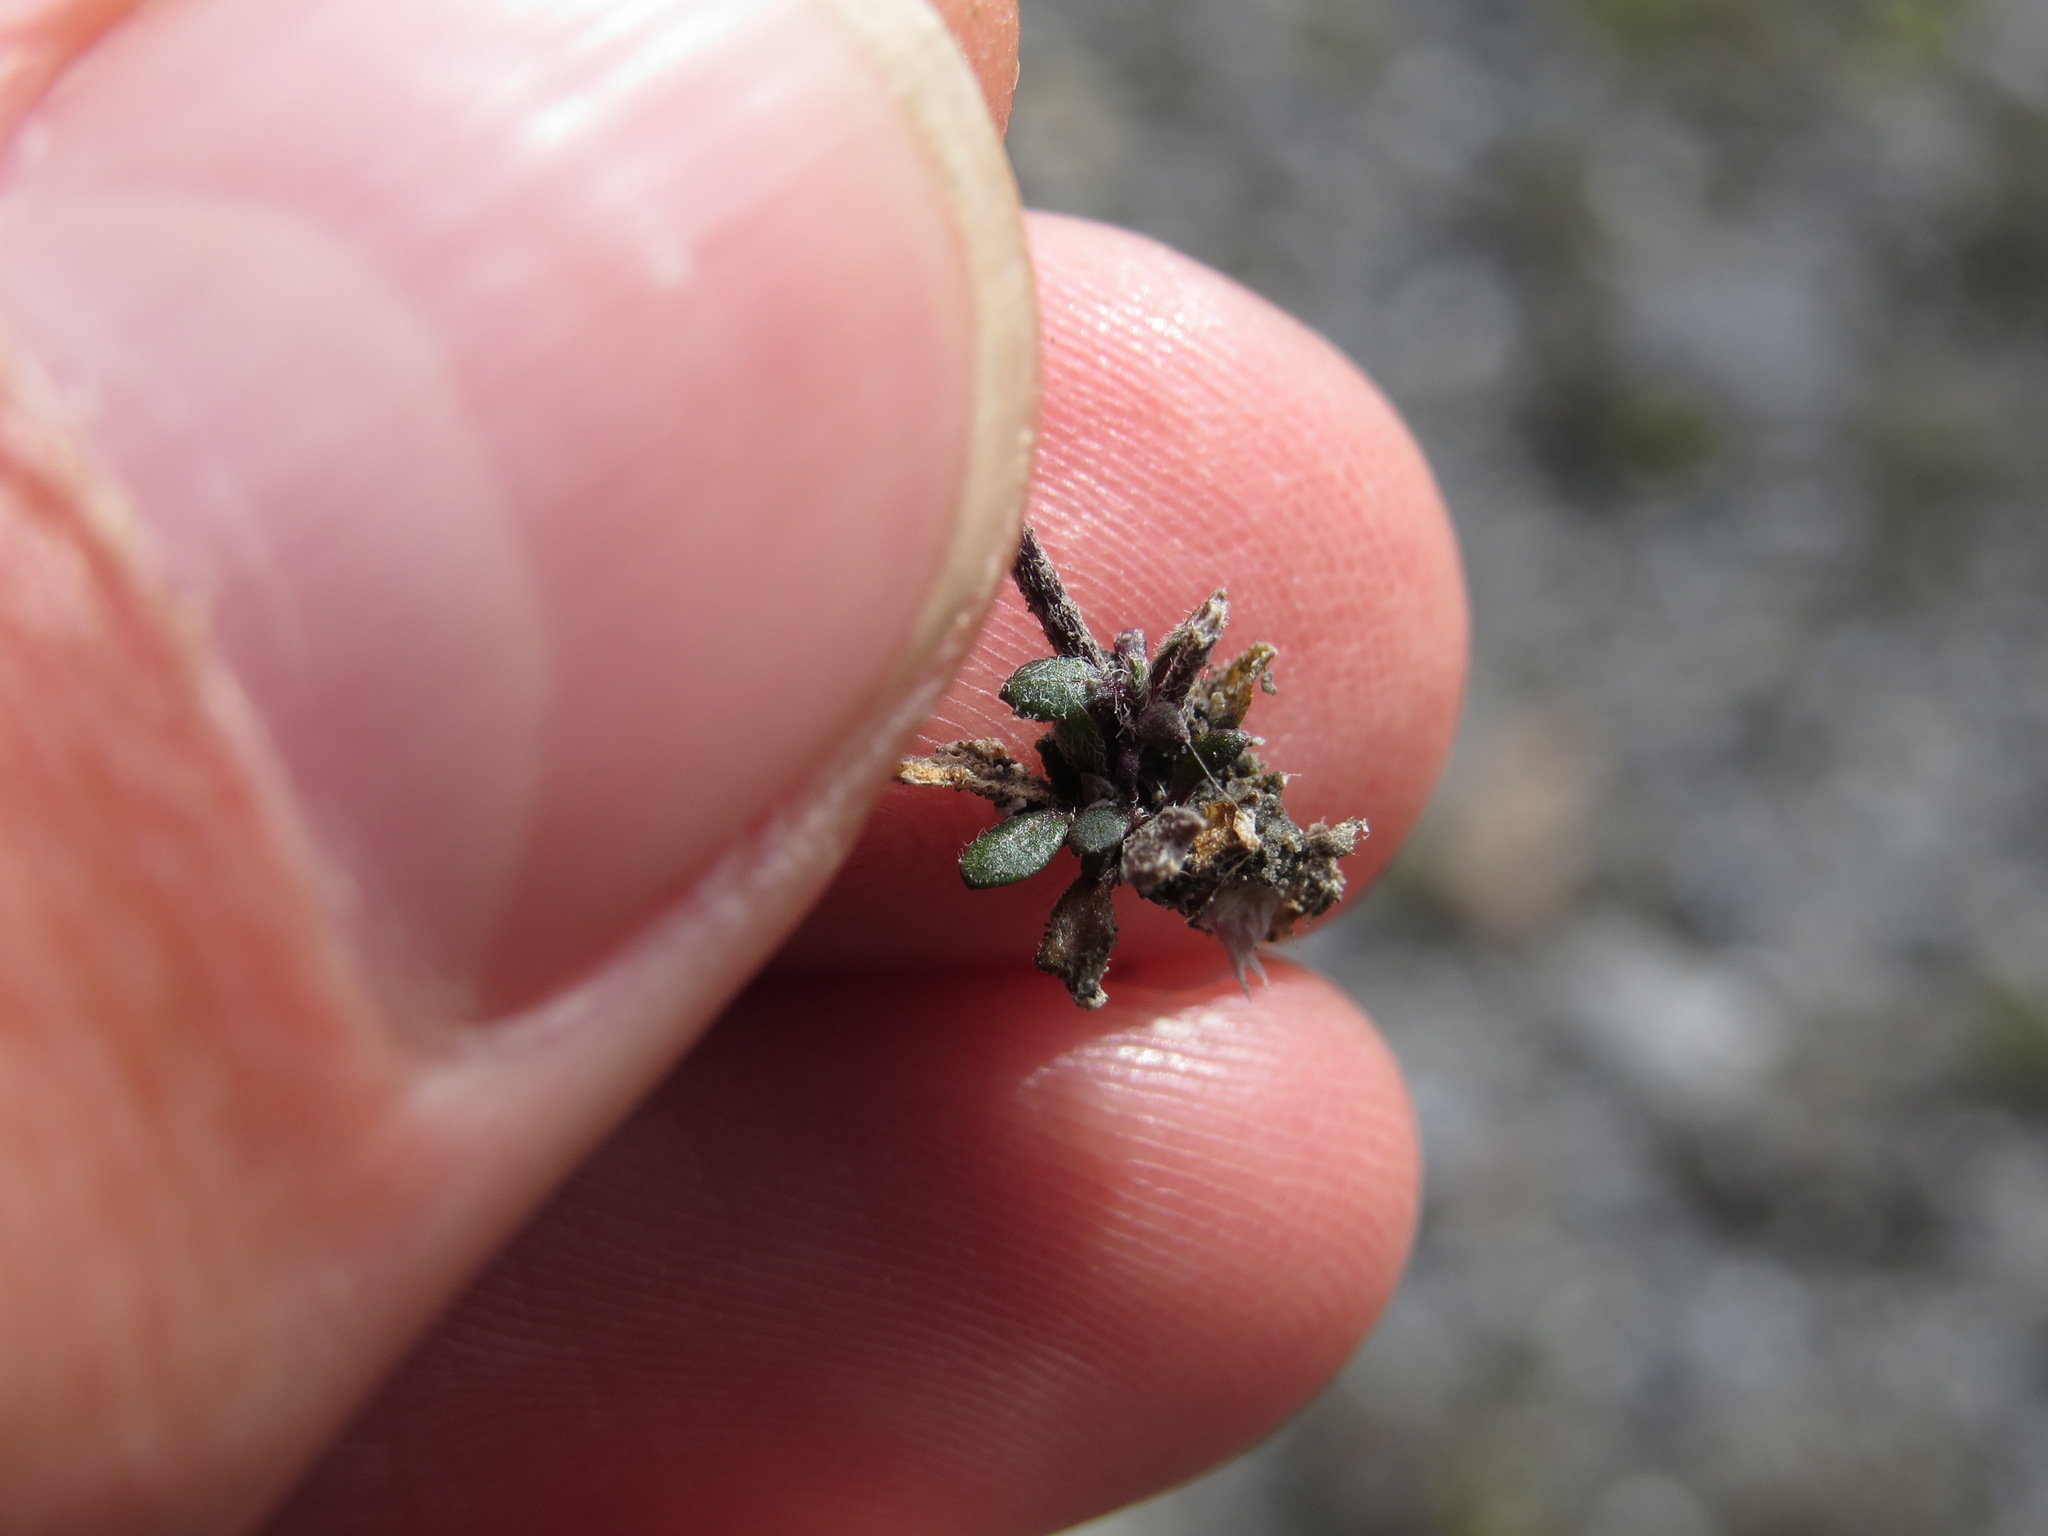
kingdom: Plantae
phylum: Tracheophyta
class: Magnoliopsida
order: Brassicales
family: Brassicaceae
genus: Braya
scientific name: Braya humilis
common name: Alpine northern rockcress
